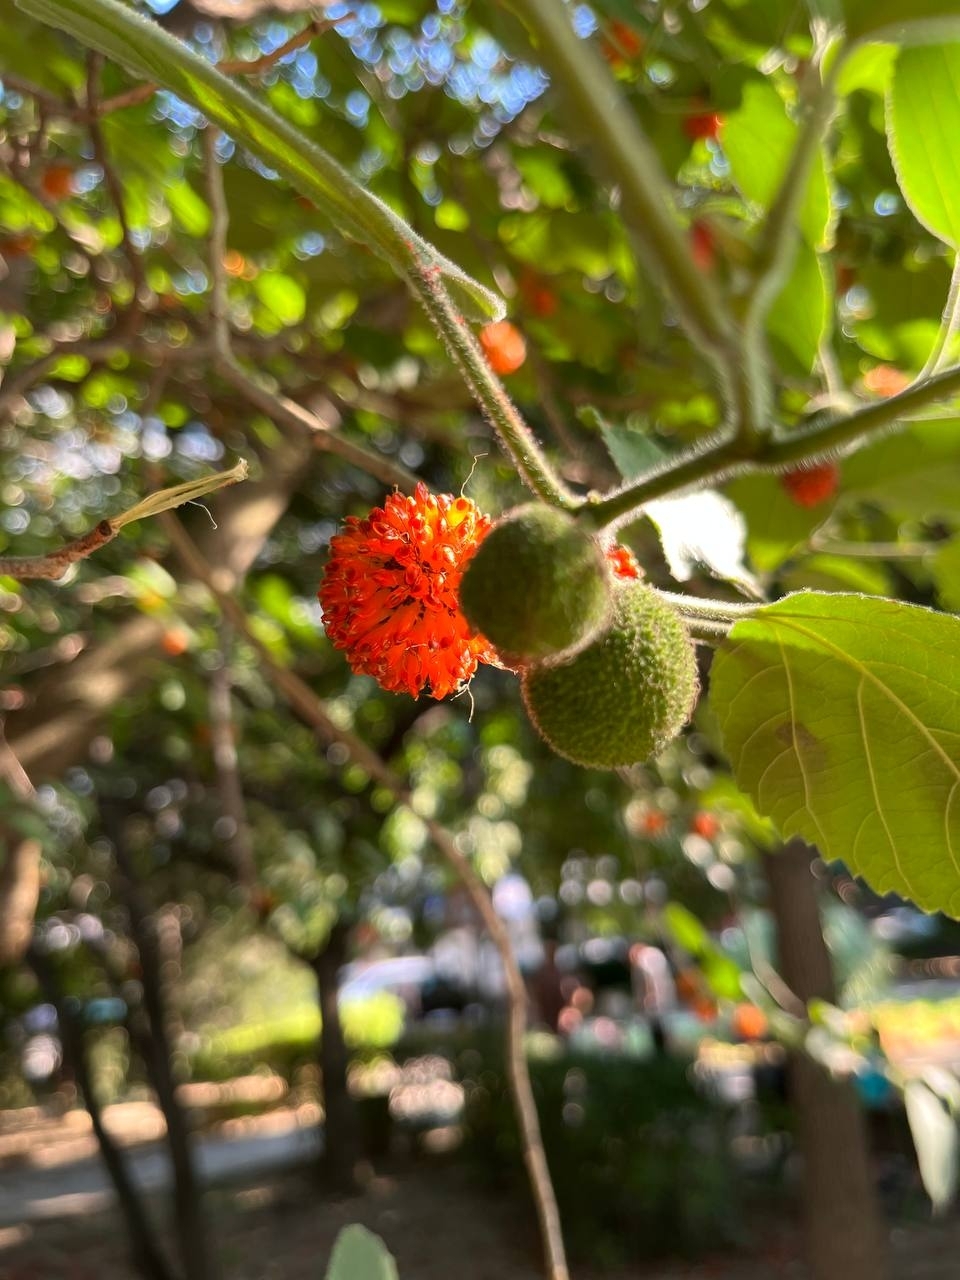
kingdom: Plantae
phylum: Tracheophyta
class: Magnoliopsida
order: Rosales
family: Moraceae
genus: Broussonetia
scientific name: Broussonetia papyrifera
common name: Paper mulberry
